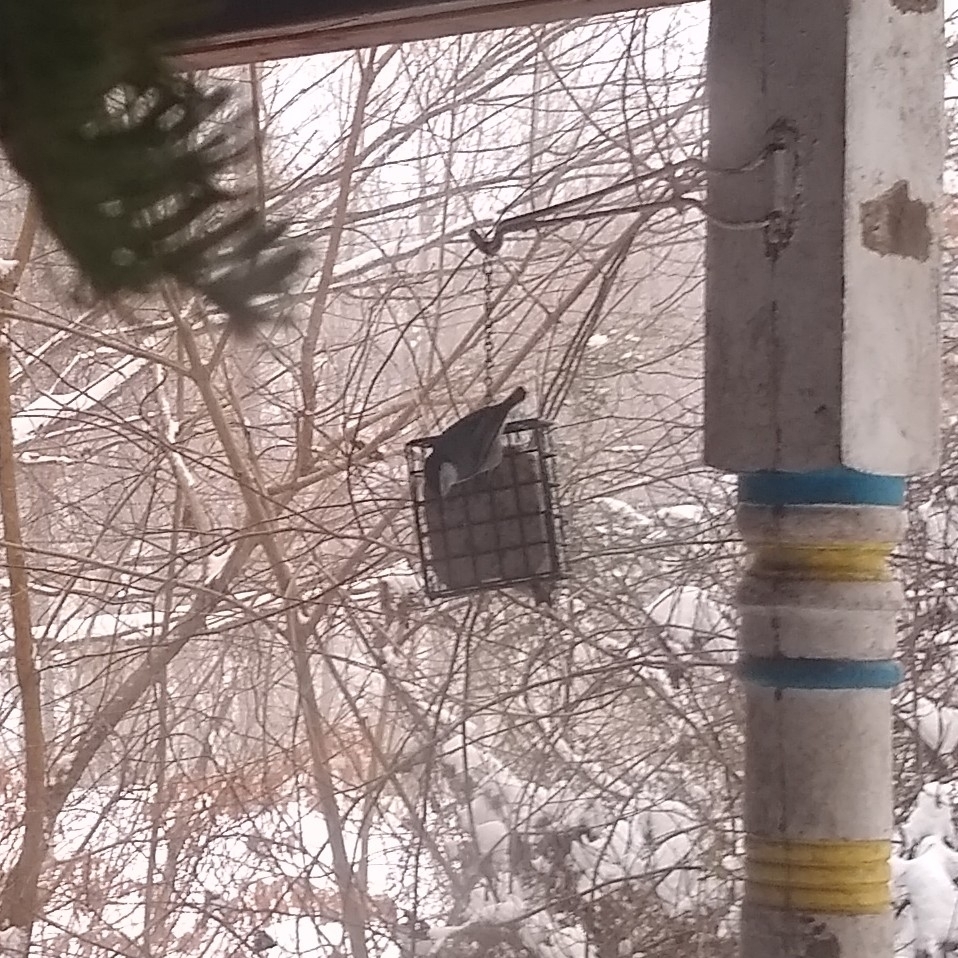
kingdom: Animalia
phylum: Chordata
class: Aves
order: Passeriformes
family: Sittidae
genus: Sitta
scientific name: Sitta carolinensis
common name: White-breasted nuthatch
